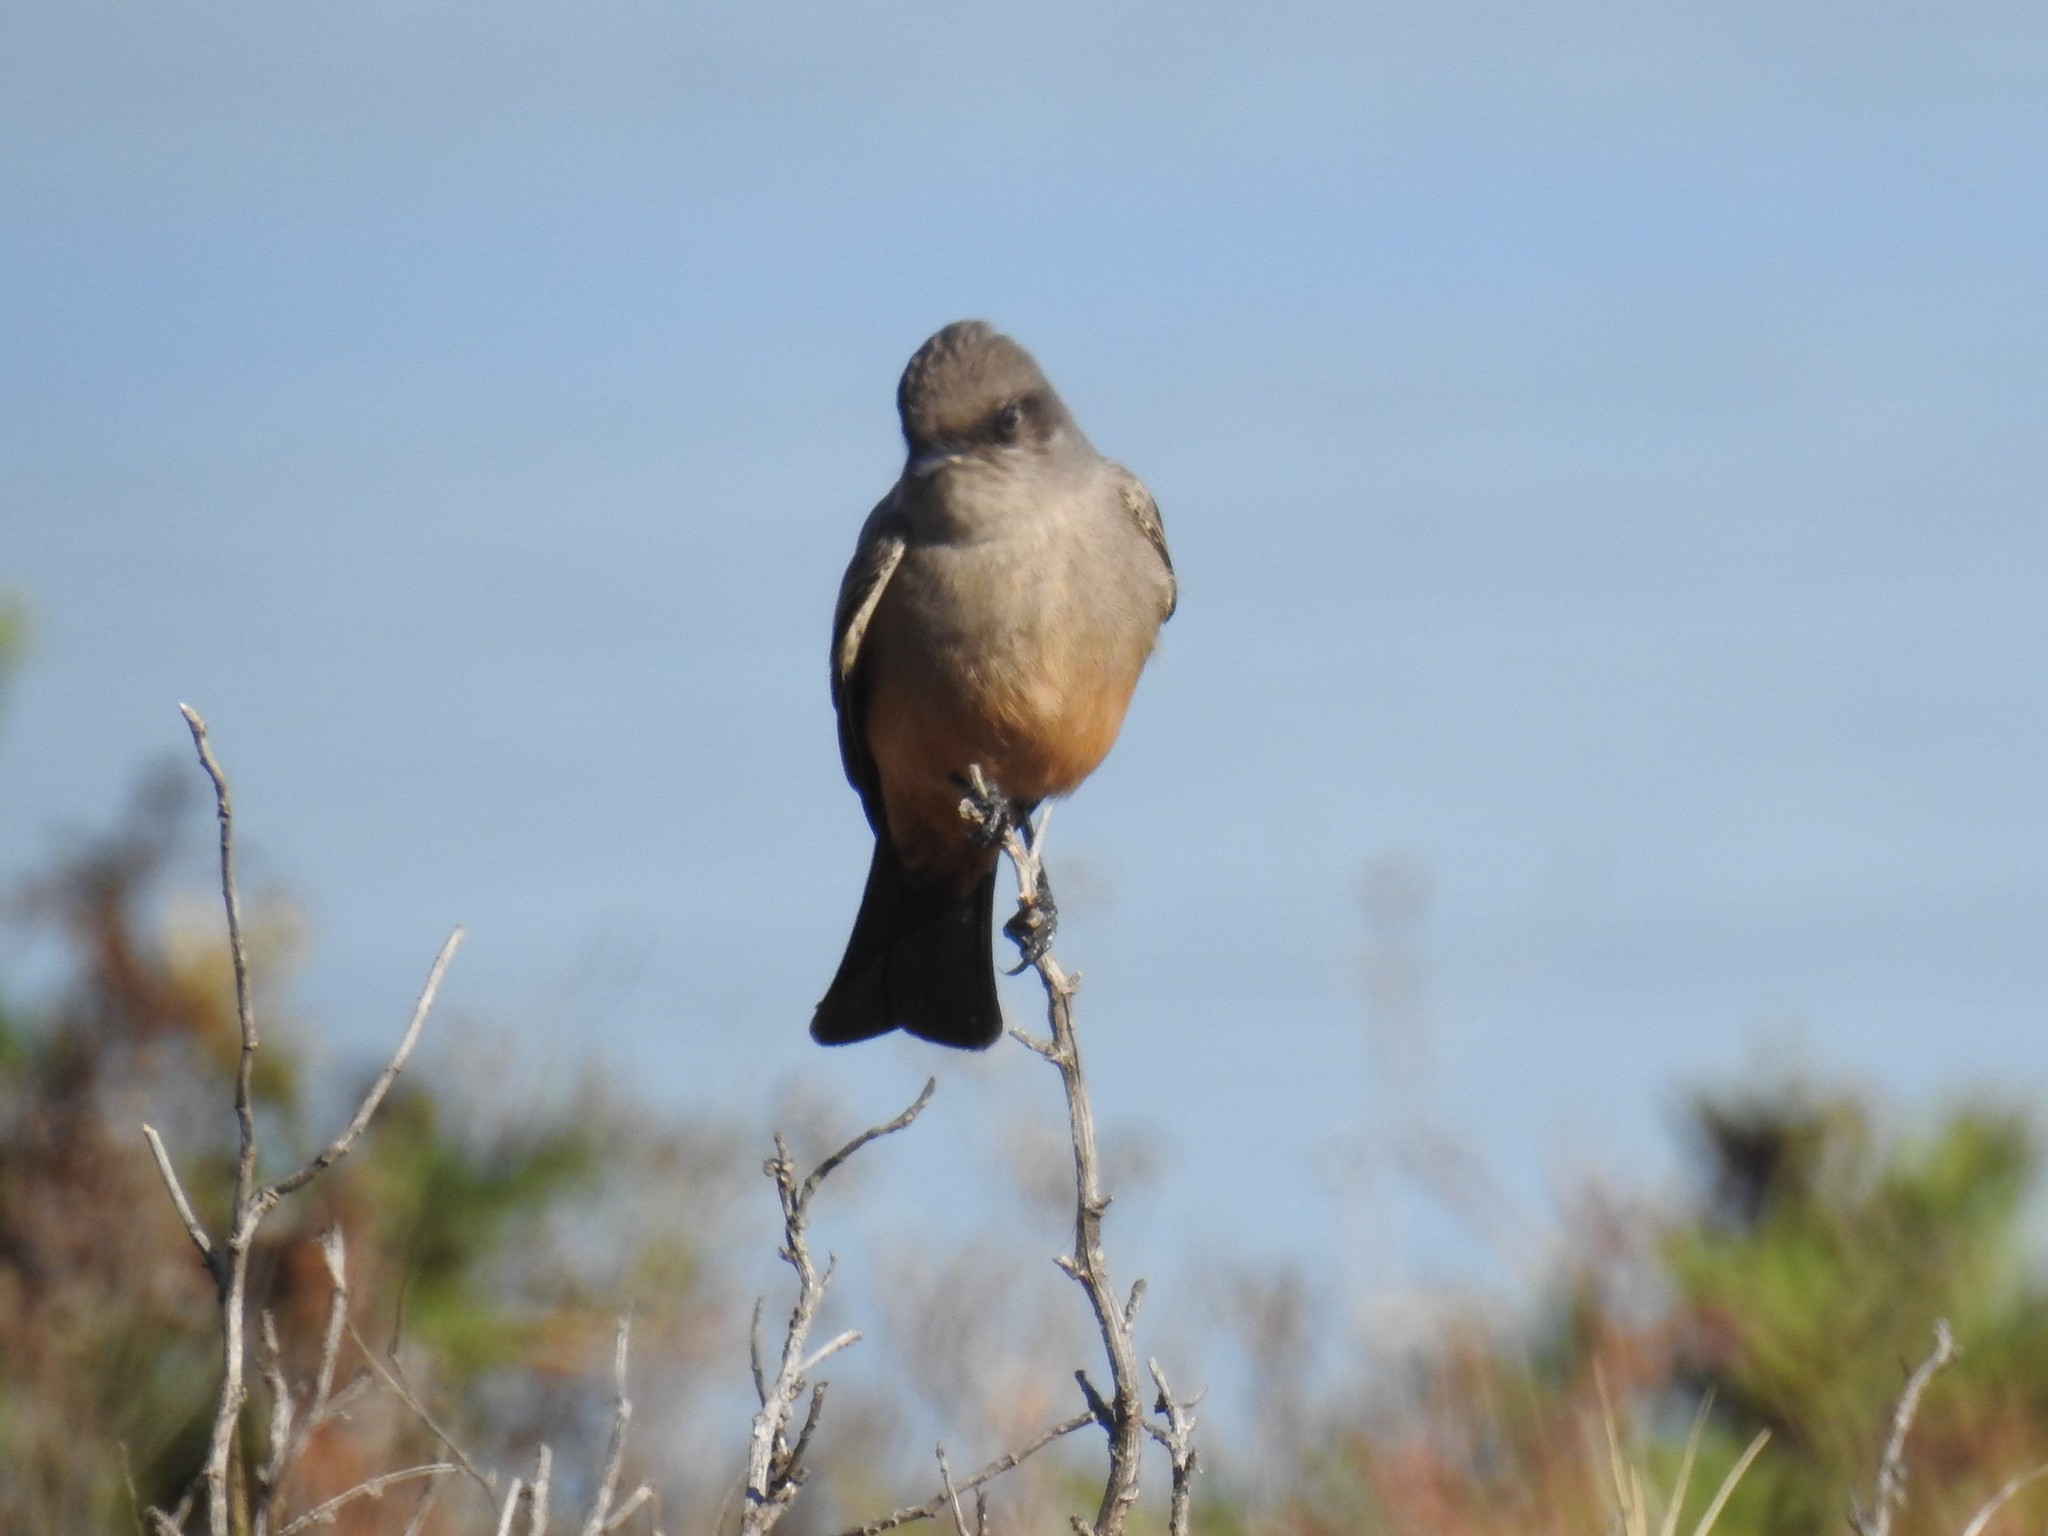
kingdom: Animalia
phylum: Chordata
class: Aves
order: Passeriformes
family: Tyrannidae
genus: Sayornis
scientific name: Sayornis saya
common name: Say's phoebe
